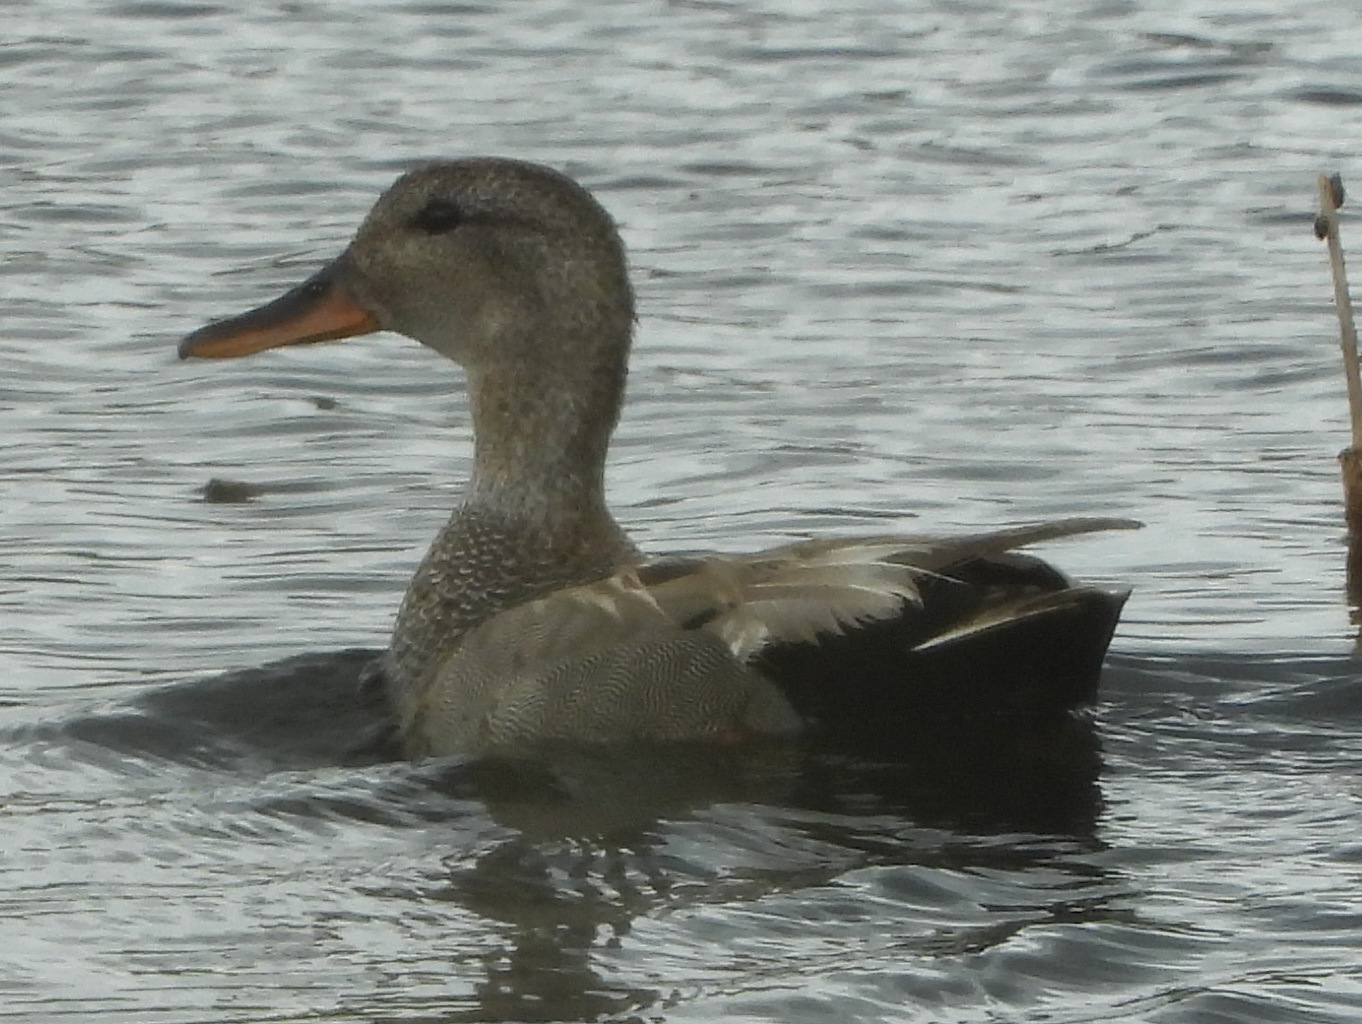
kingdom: Animalia
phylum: Chordata
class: Aves
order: Anseriformes
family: Anatidae
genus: Mareca
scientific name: Mareca strepera
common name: Gadwall
